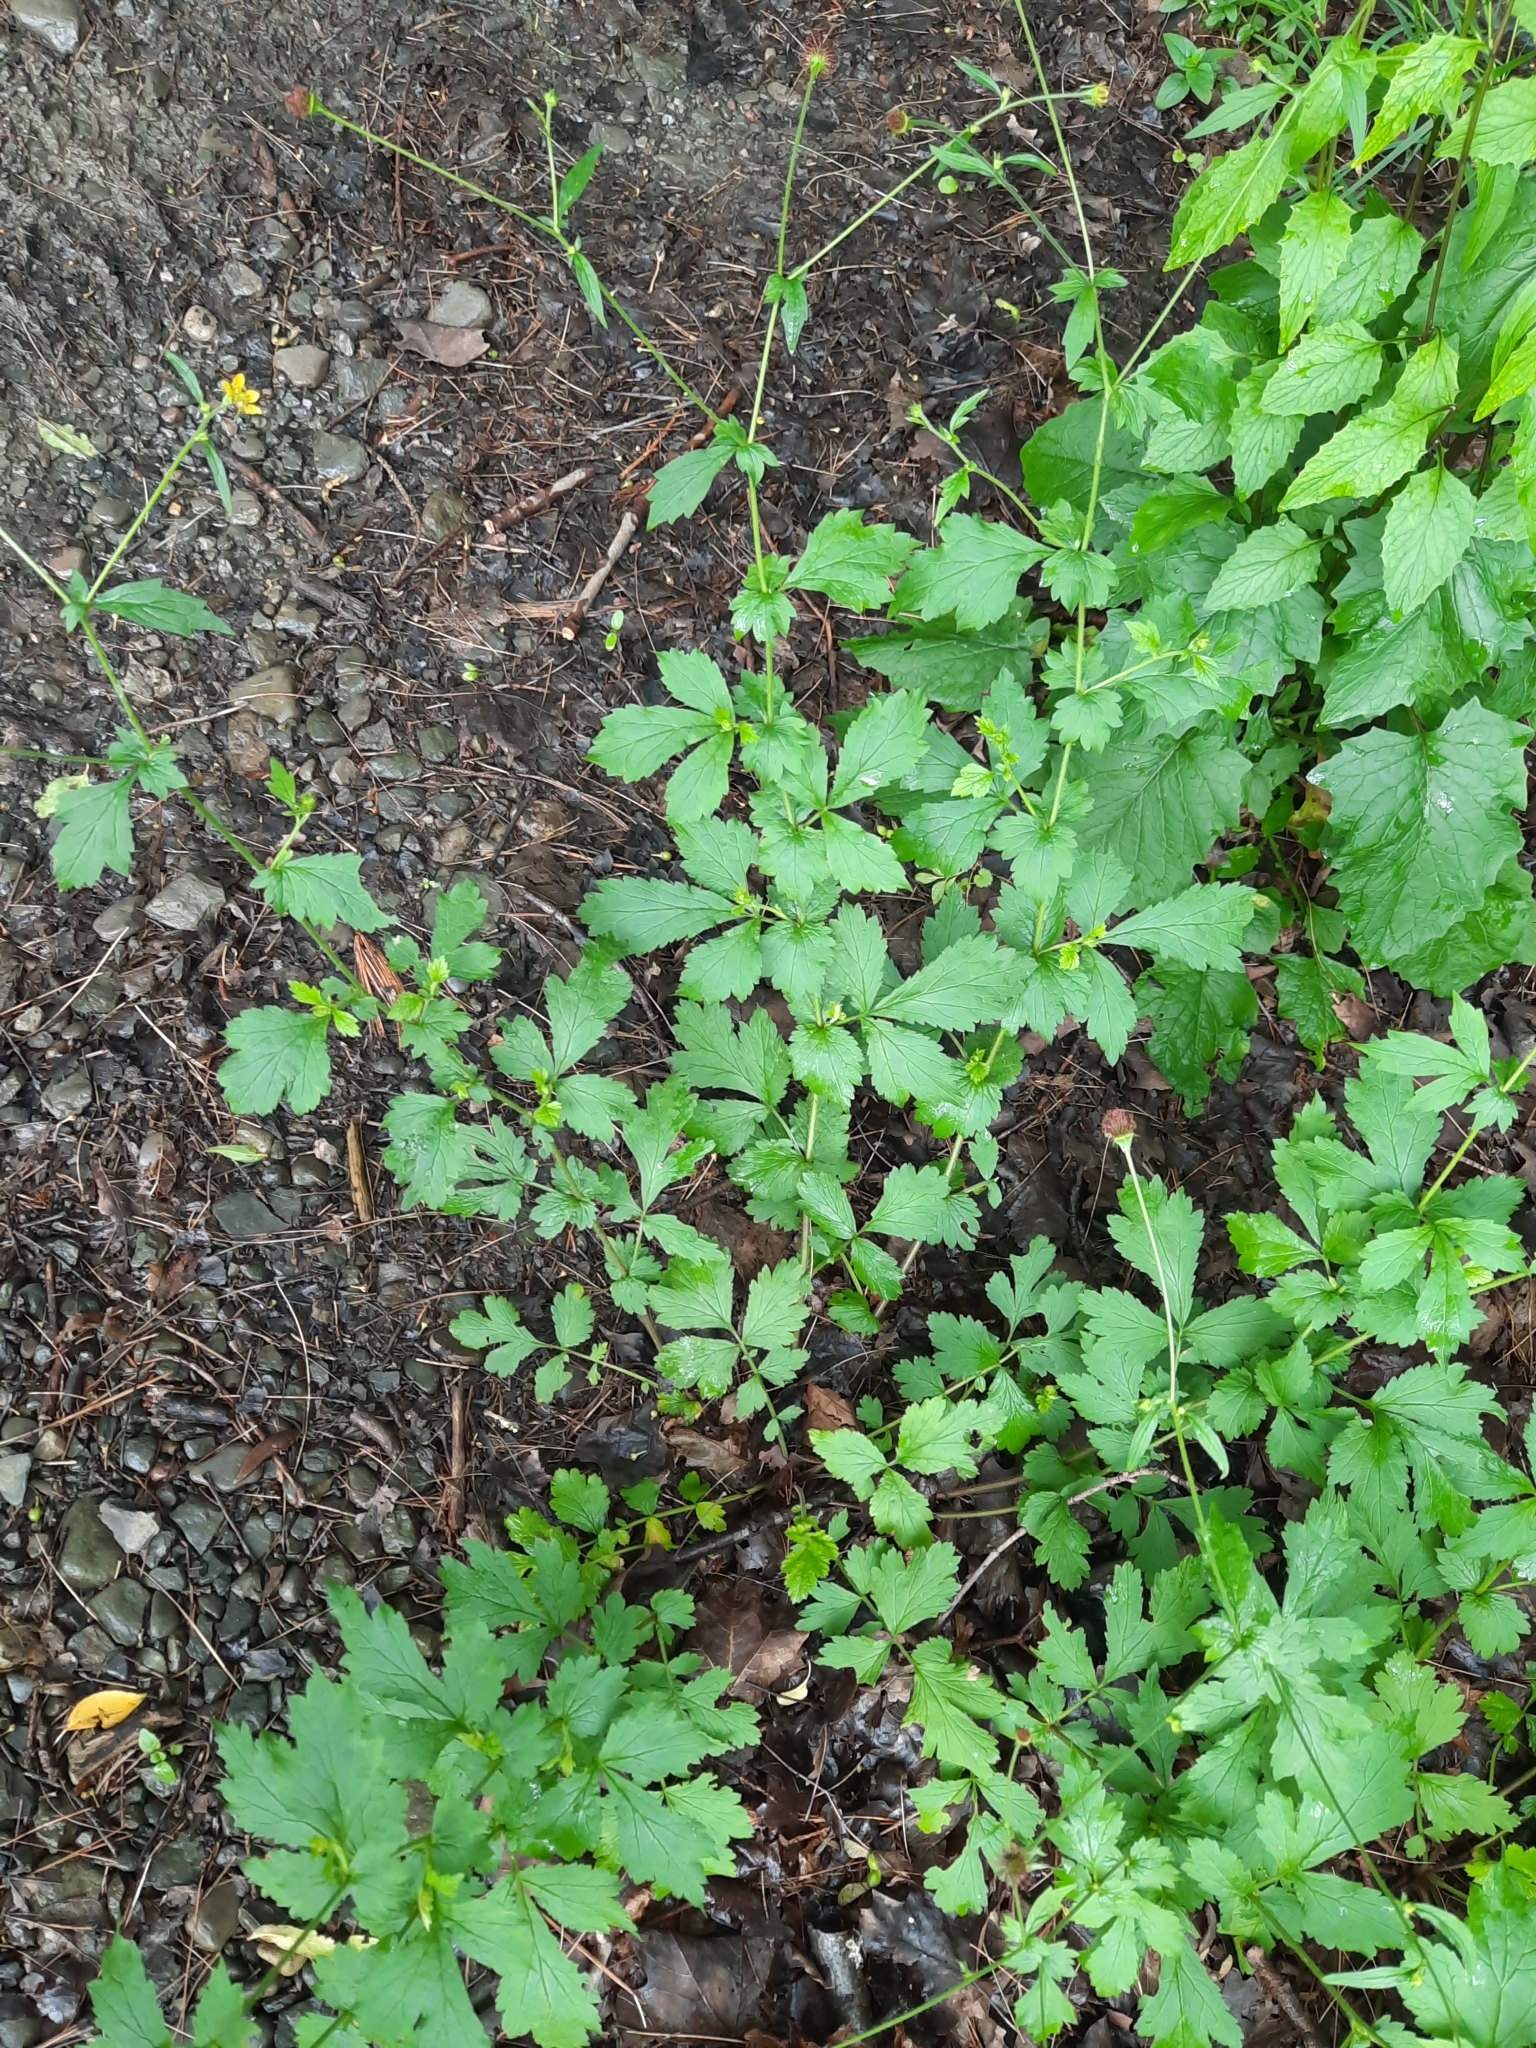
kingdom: Plantae
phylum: Tracheophyta
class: Magnoliopsida
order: Rosales
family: Rosaceae
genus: Geum
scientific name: Geum urbanum
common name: Wood avens
